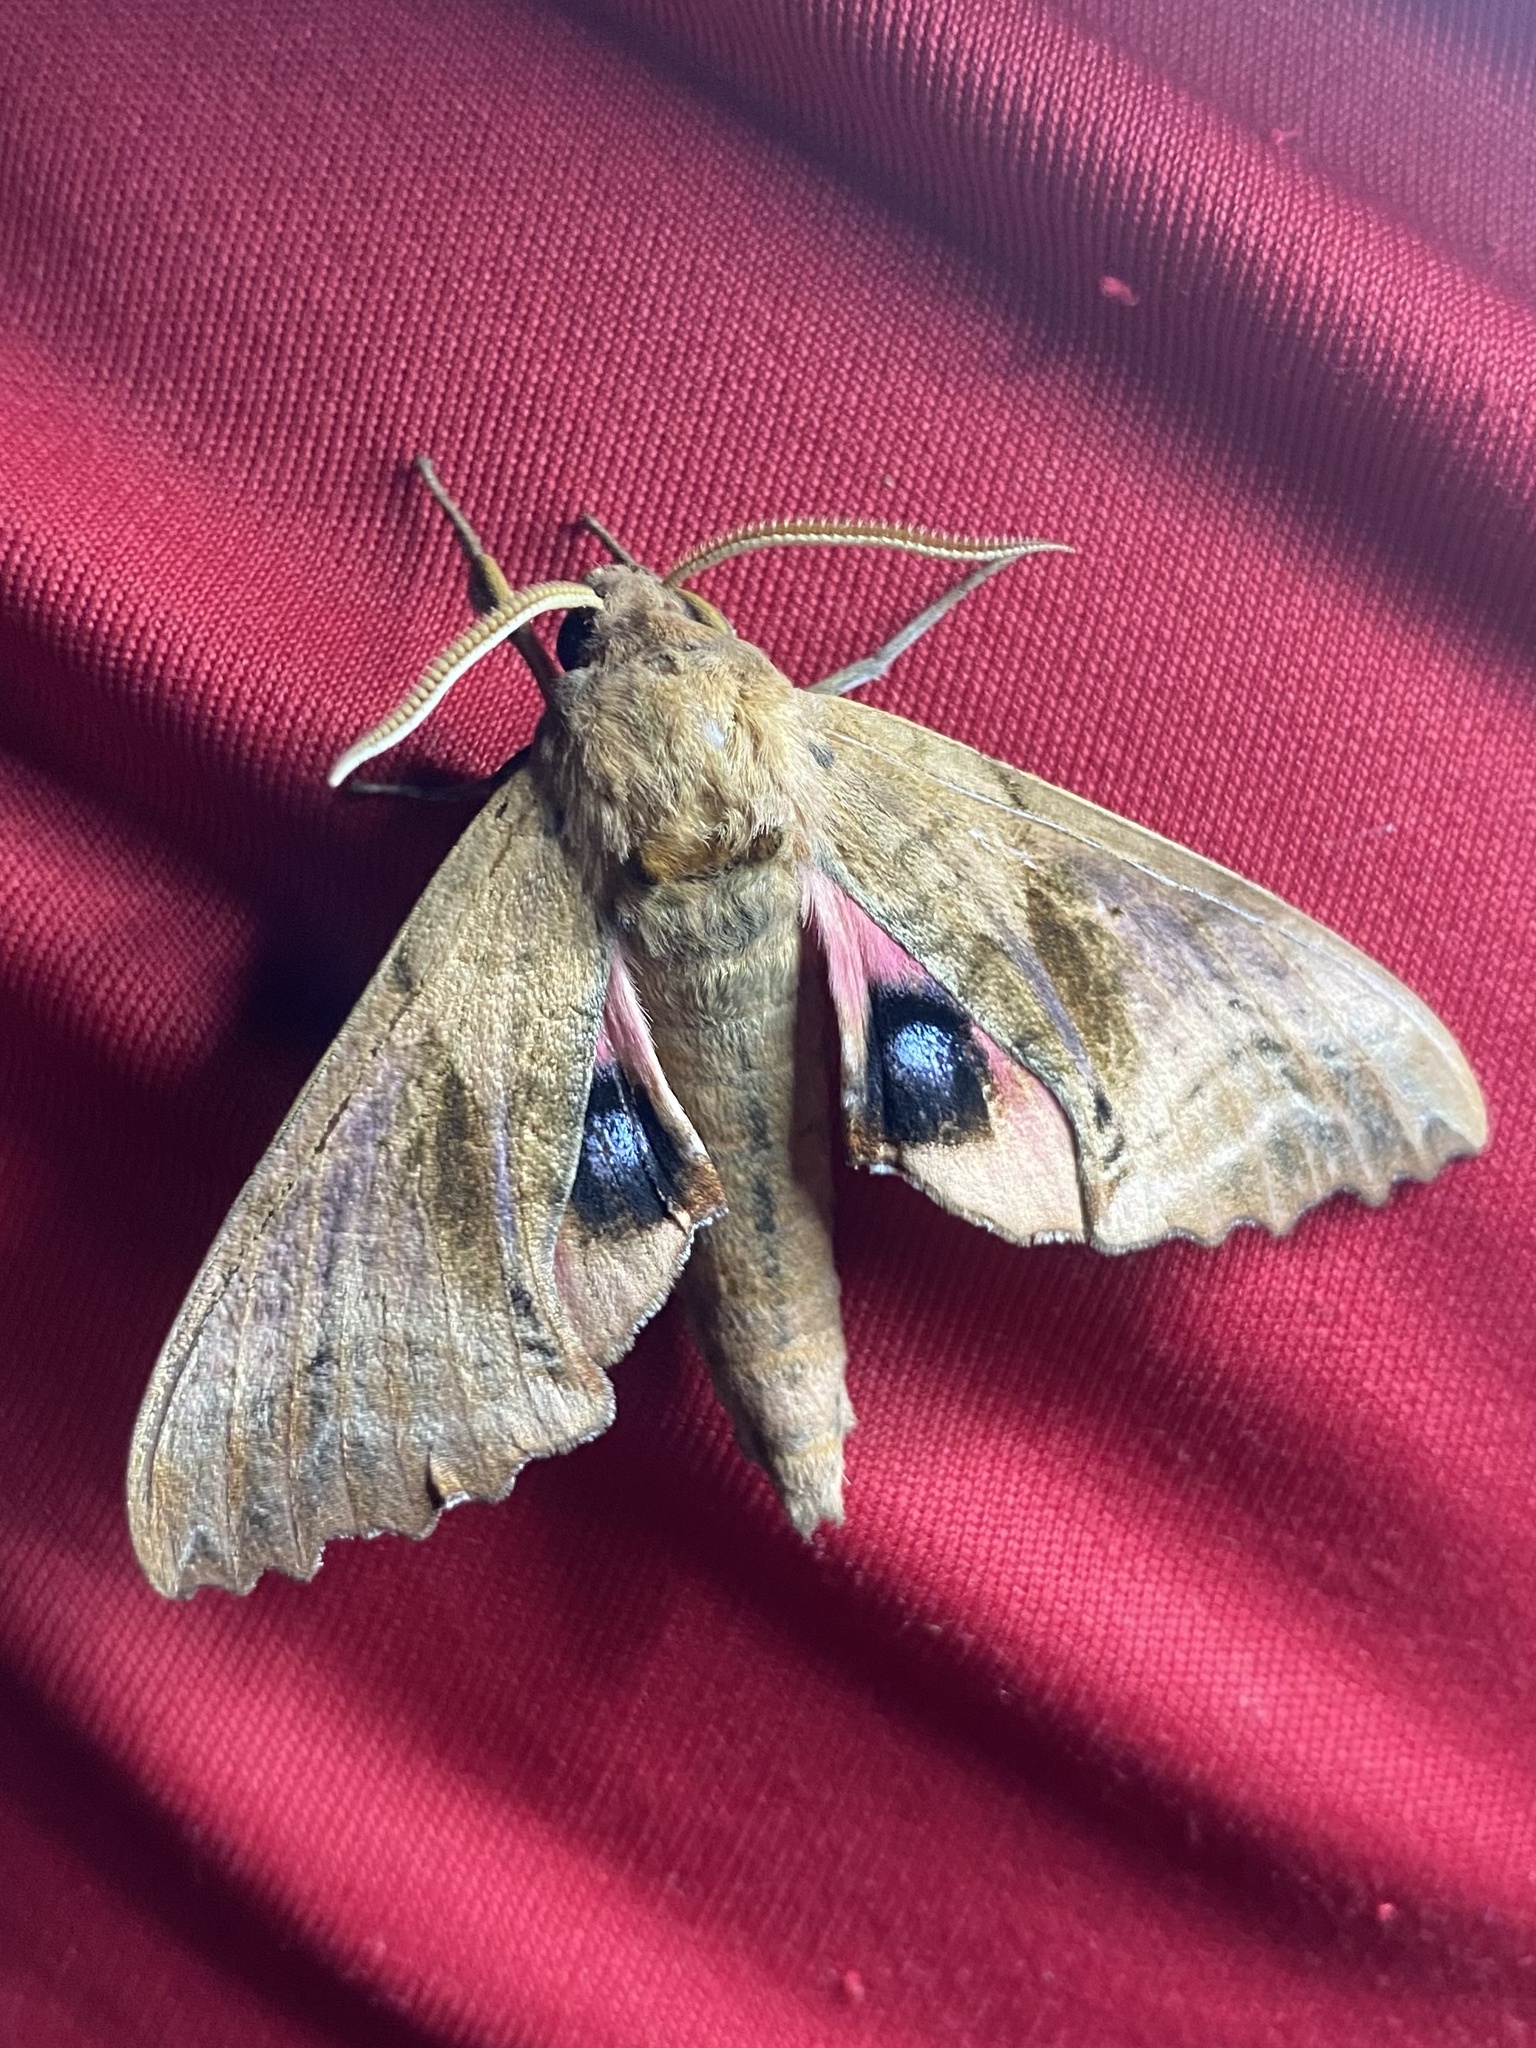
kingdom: Animalia
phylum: Arthropoda
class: Insecta
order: Lepidoptera
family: Sphingidae
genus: Paonias
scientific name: Paonias excaecata
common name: Blind-eyed sphinx
